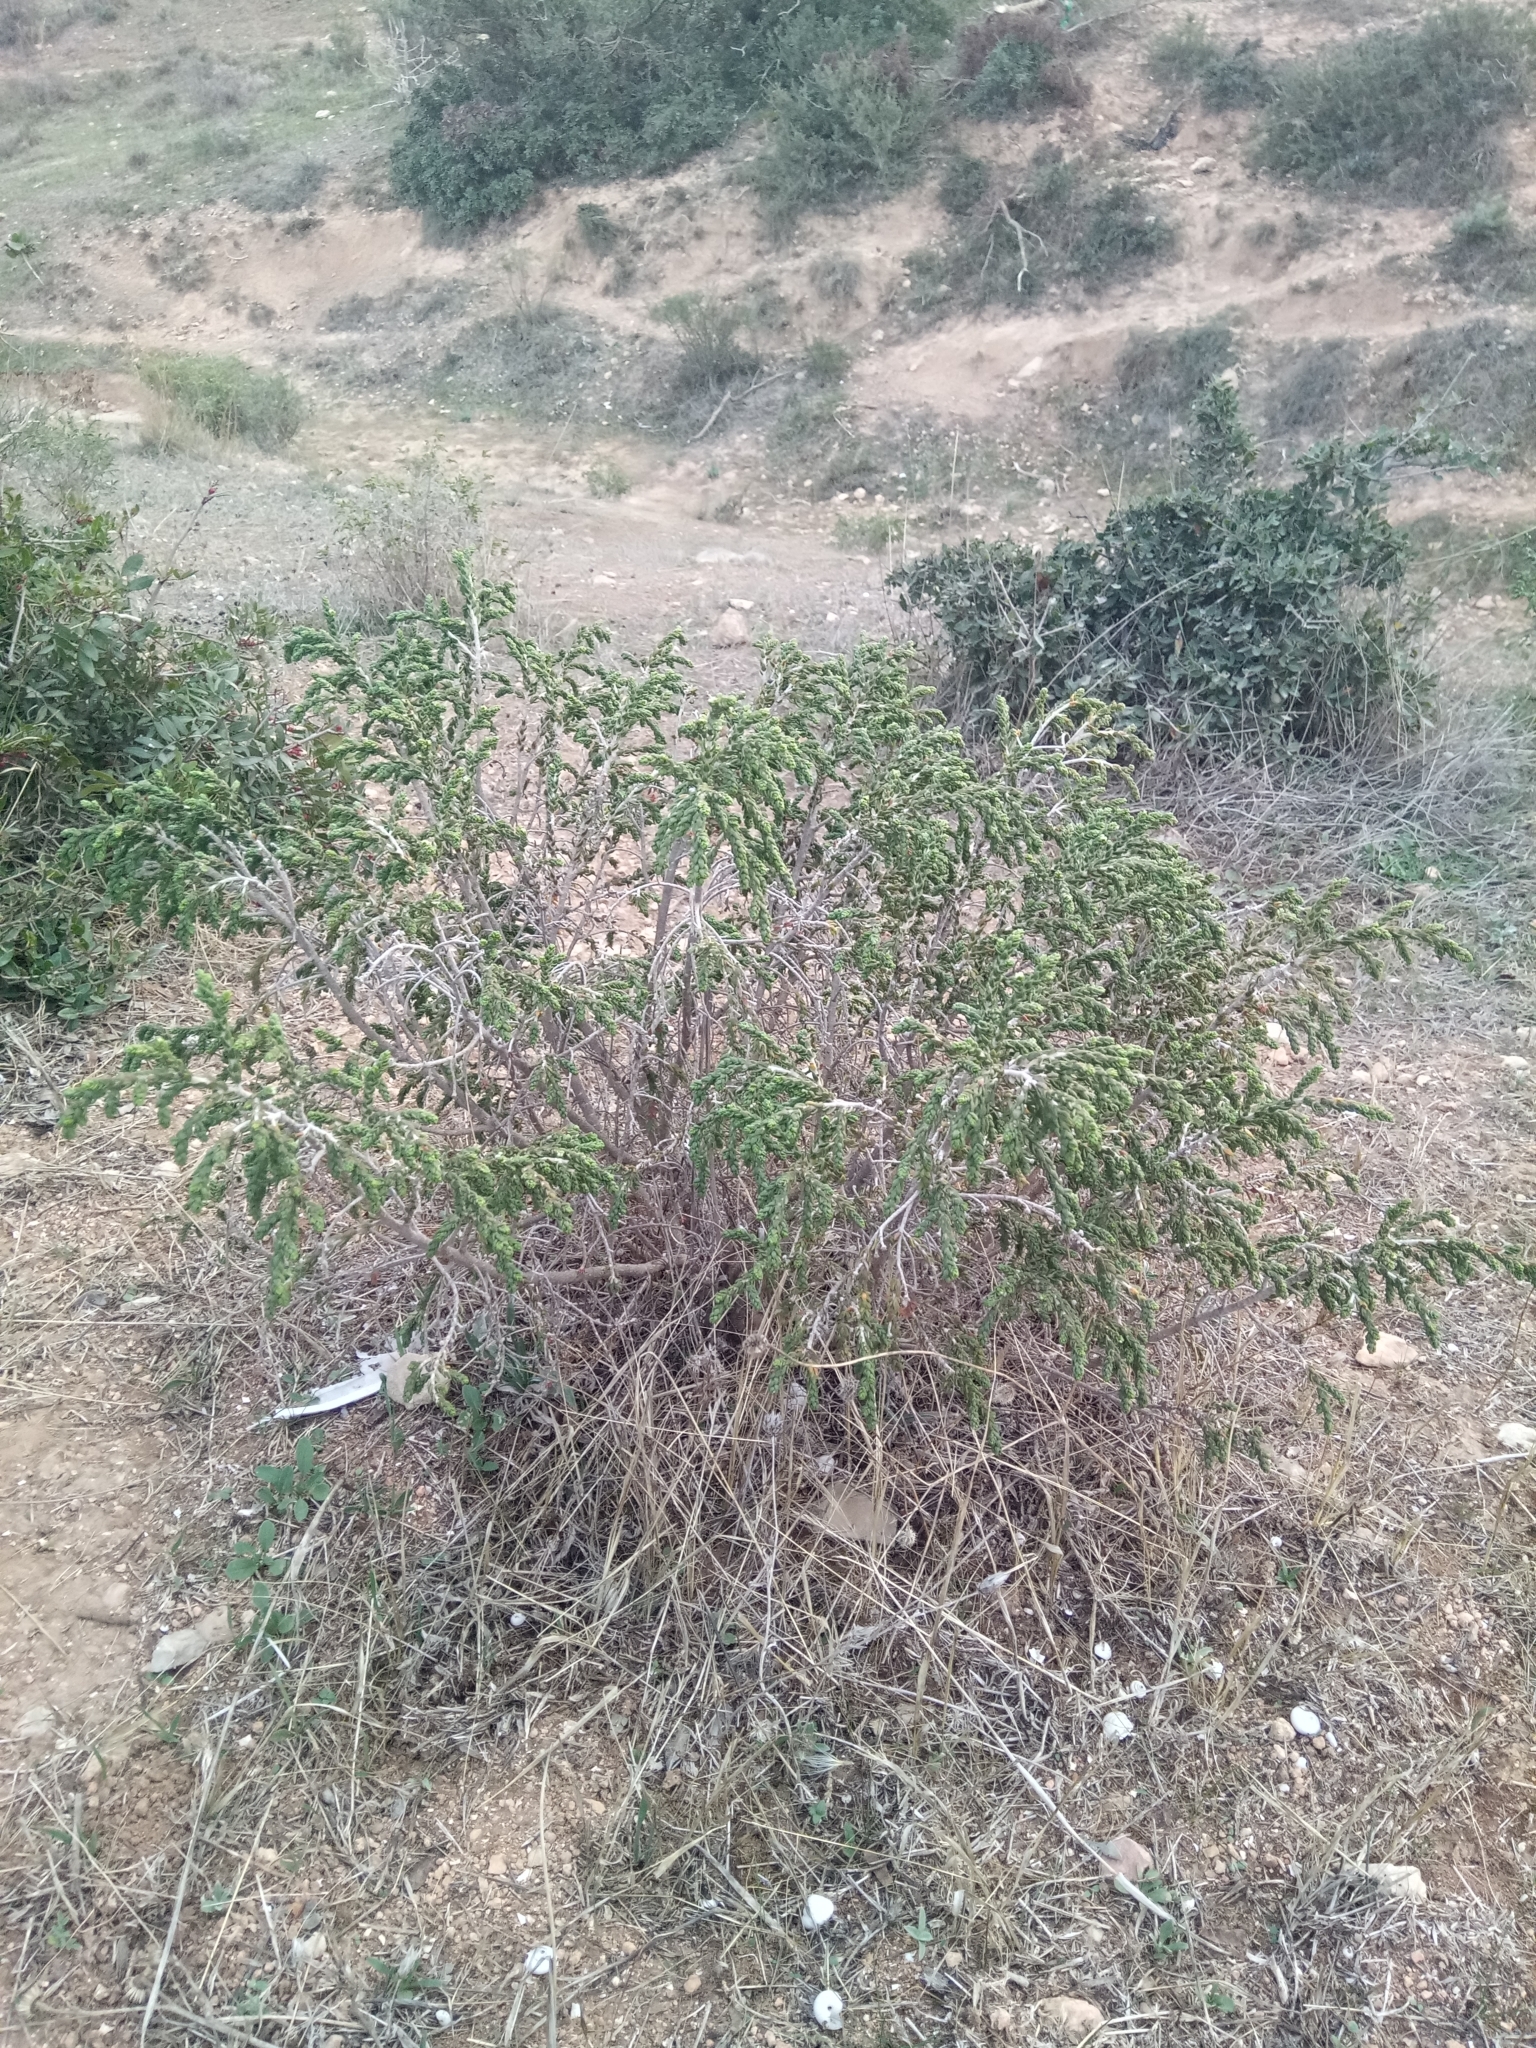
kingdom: Plantae
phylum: Tracheophyta
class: Magnoliopsida
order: Malvales
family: Thymelaeaceae
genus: Thymelaea
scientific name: Thymelaea hirsuta
